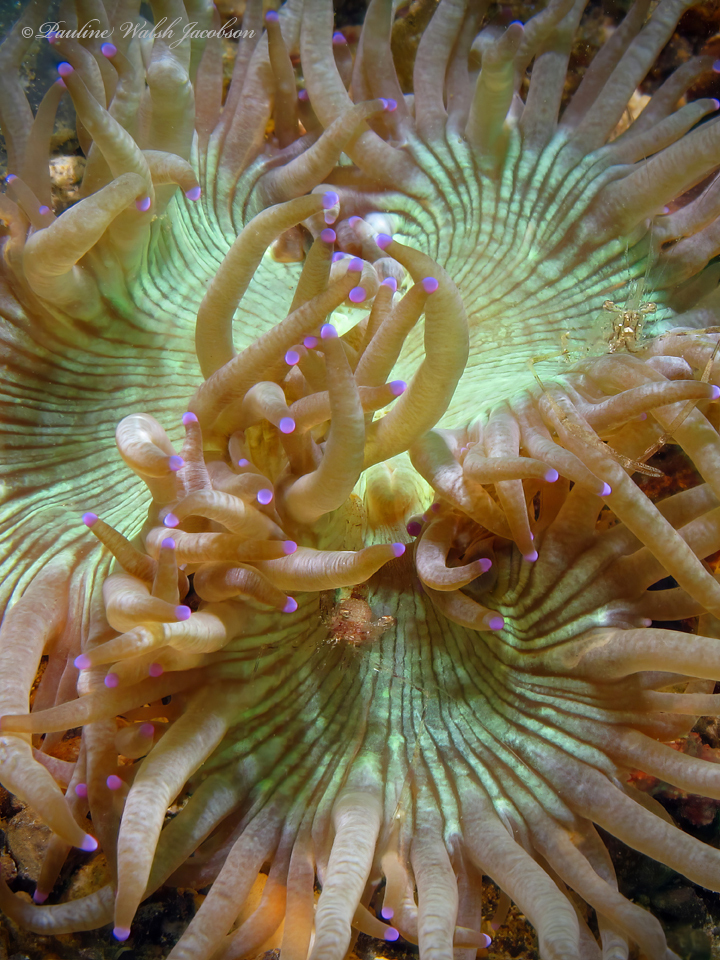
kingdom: Animalia
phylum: Cnidaria
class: Anthozoa
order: Scleractinia
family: Merulinidae
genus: Catalaphyllia
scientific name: Catalaphyllia jardinei
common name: Wonder coral
